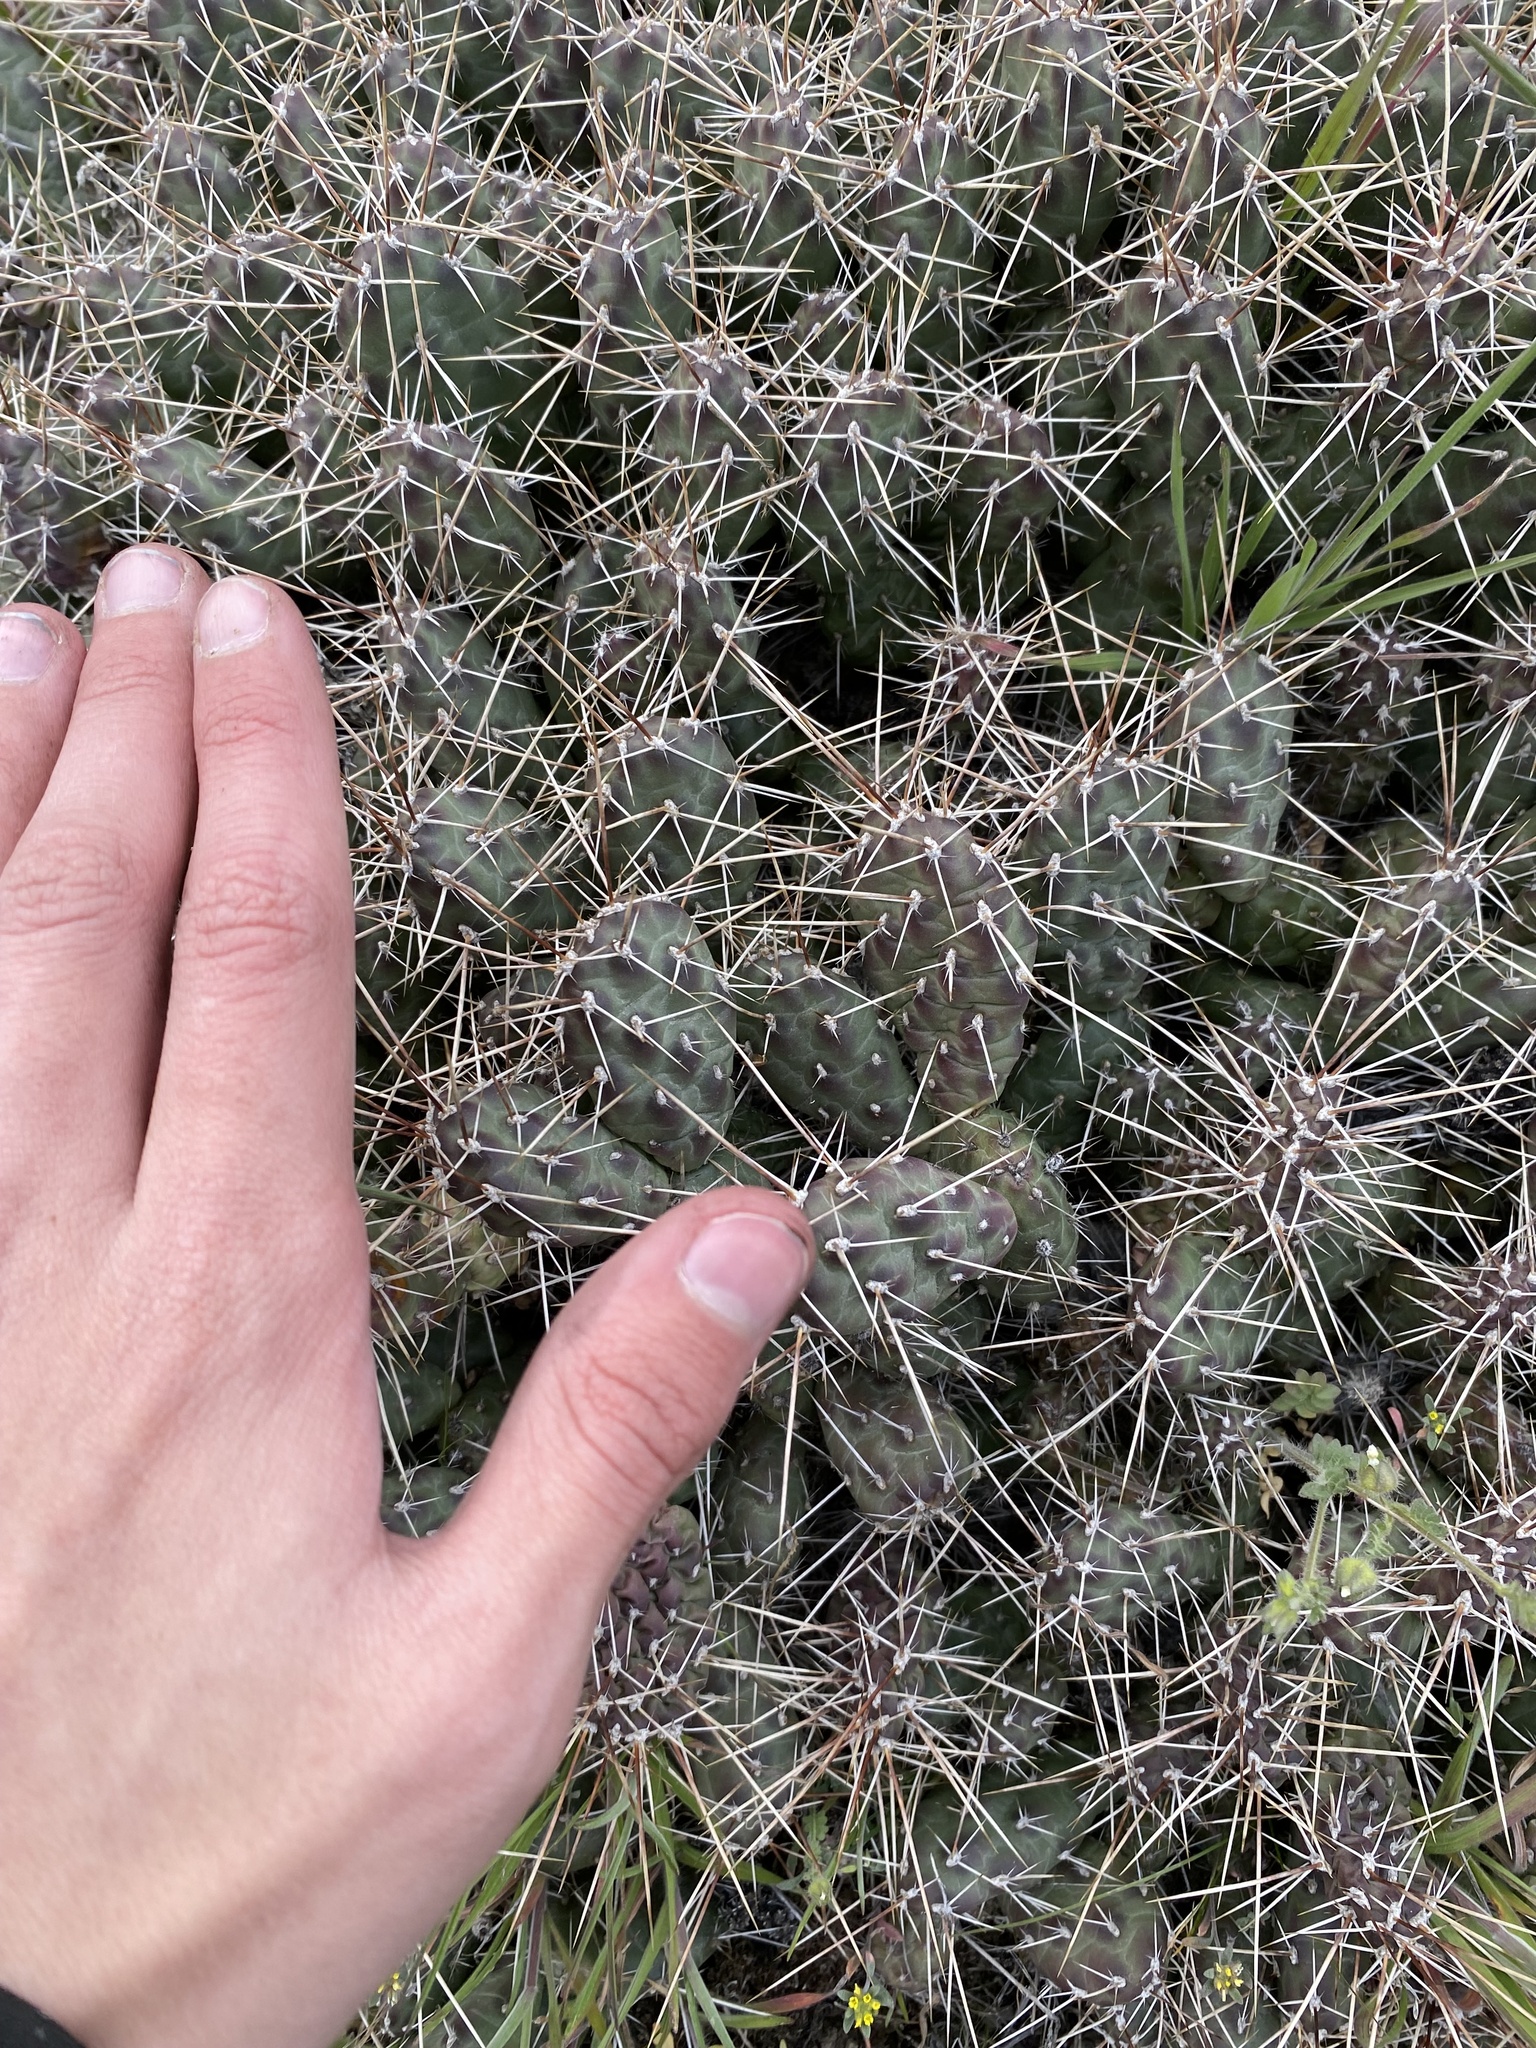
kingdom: Plantae
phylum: Tracheophyta
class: Magnoliopsida
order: Caryophyllales
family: Cactaceae
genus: Opuntia
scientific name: Opuntia fragilis
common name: Brittle cactus
